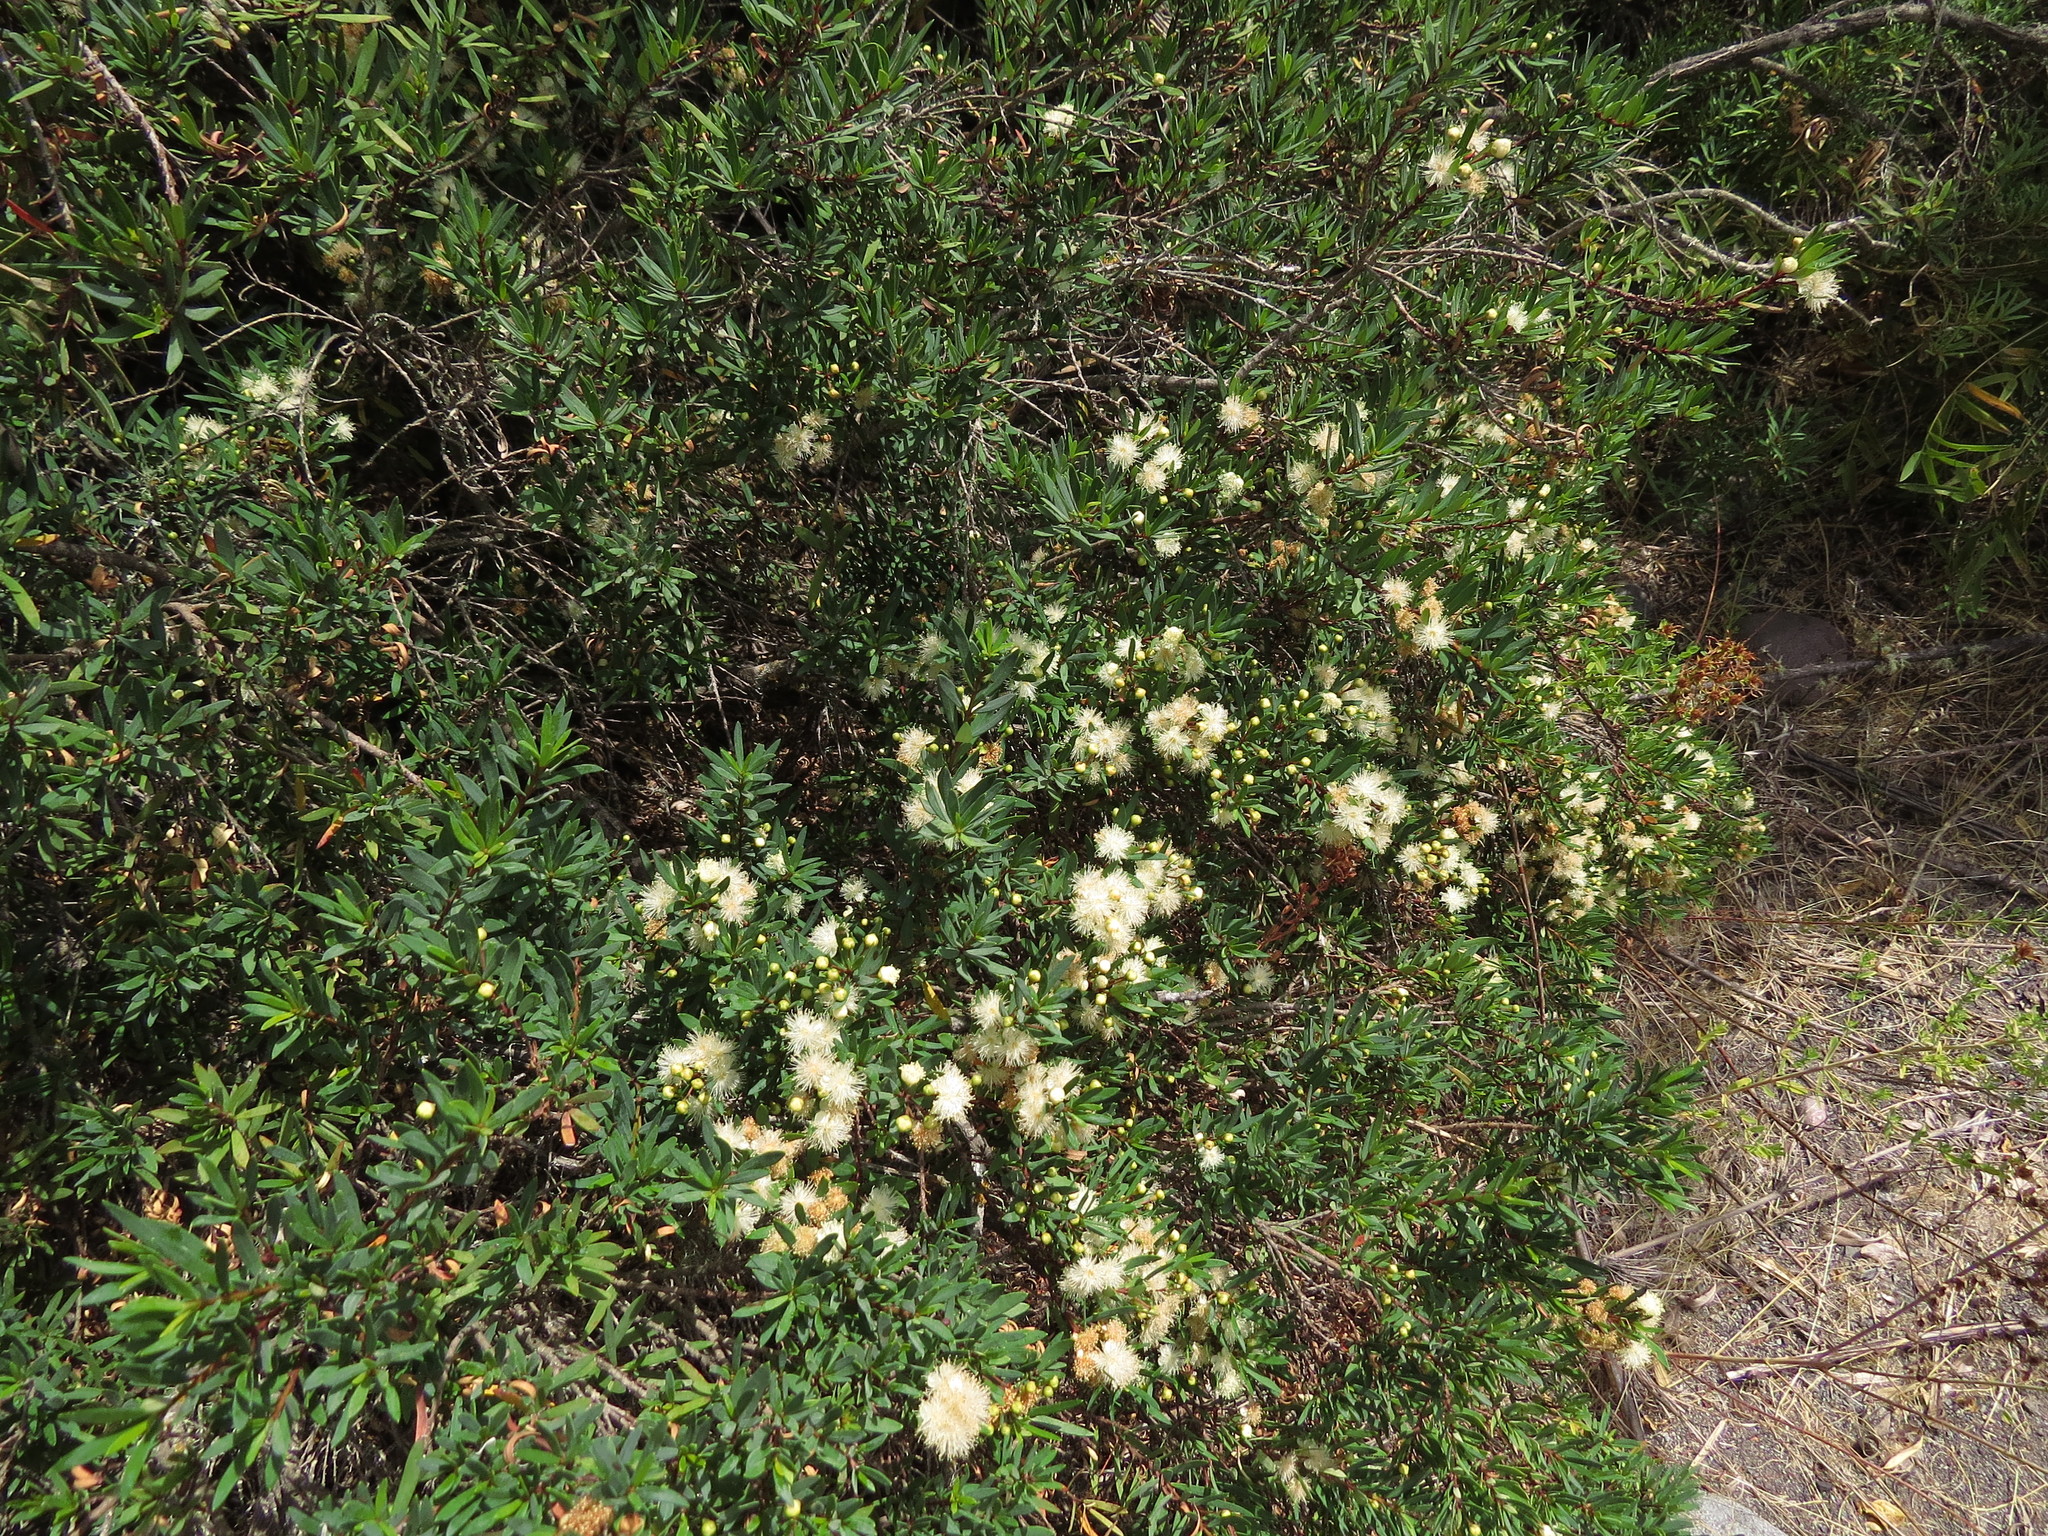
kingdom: Plantae
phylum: Tracheophyta
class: Magnoliopsida
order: Myrtales
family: Myrtaceae
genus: Myrceugenia
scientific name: Myrceugenia lanceolata
